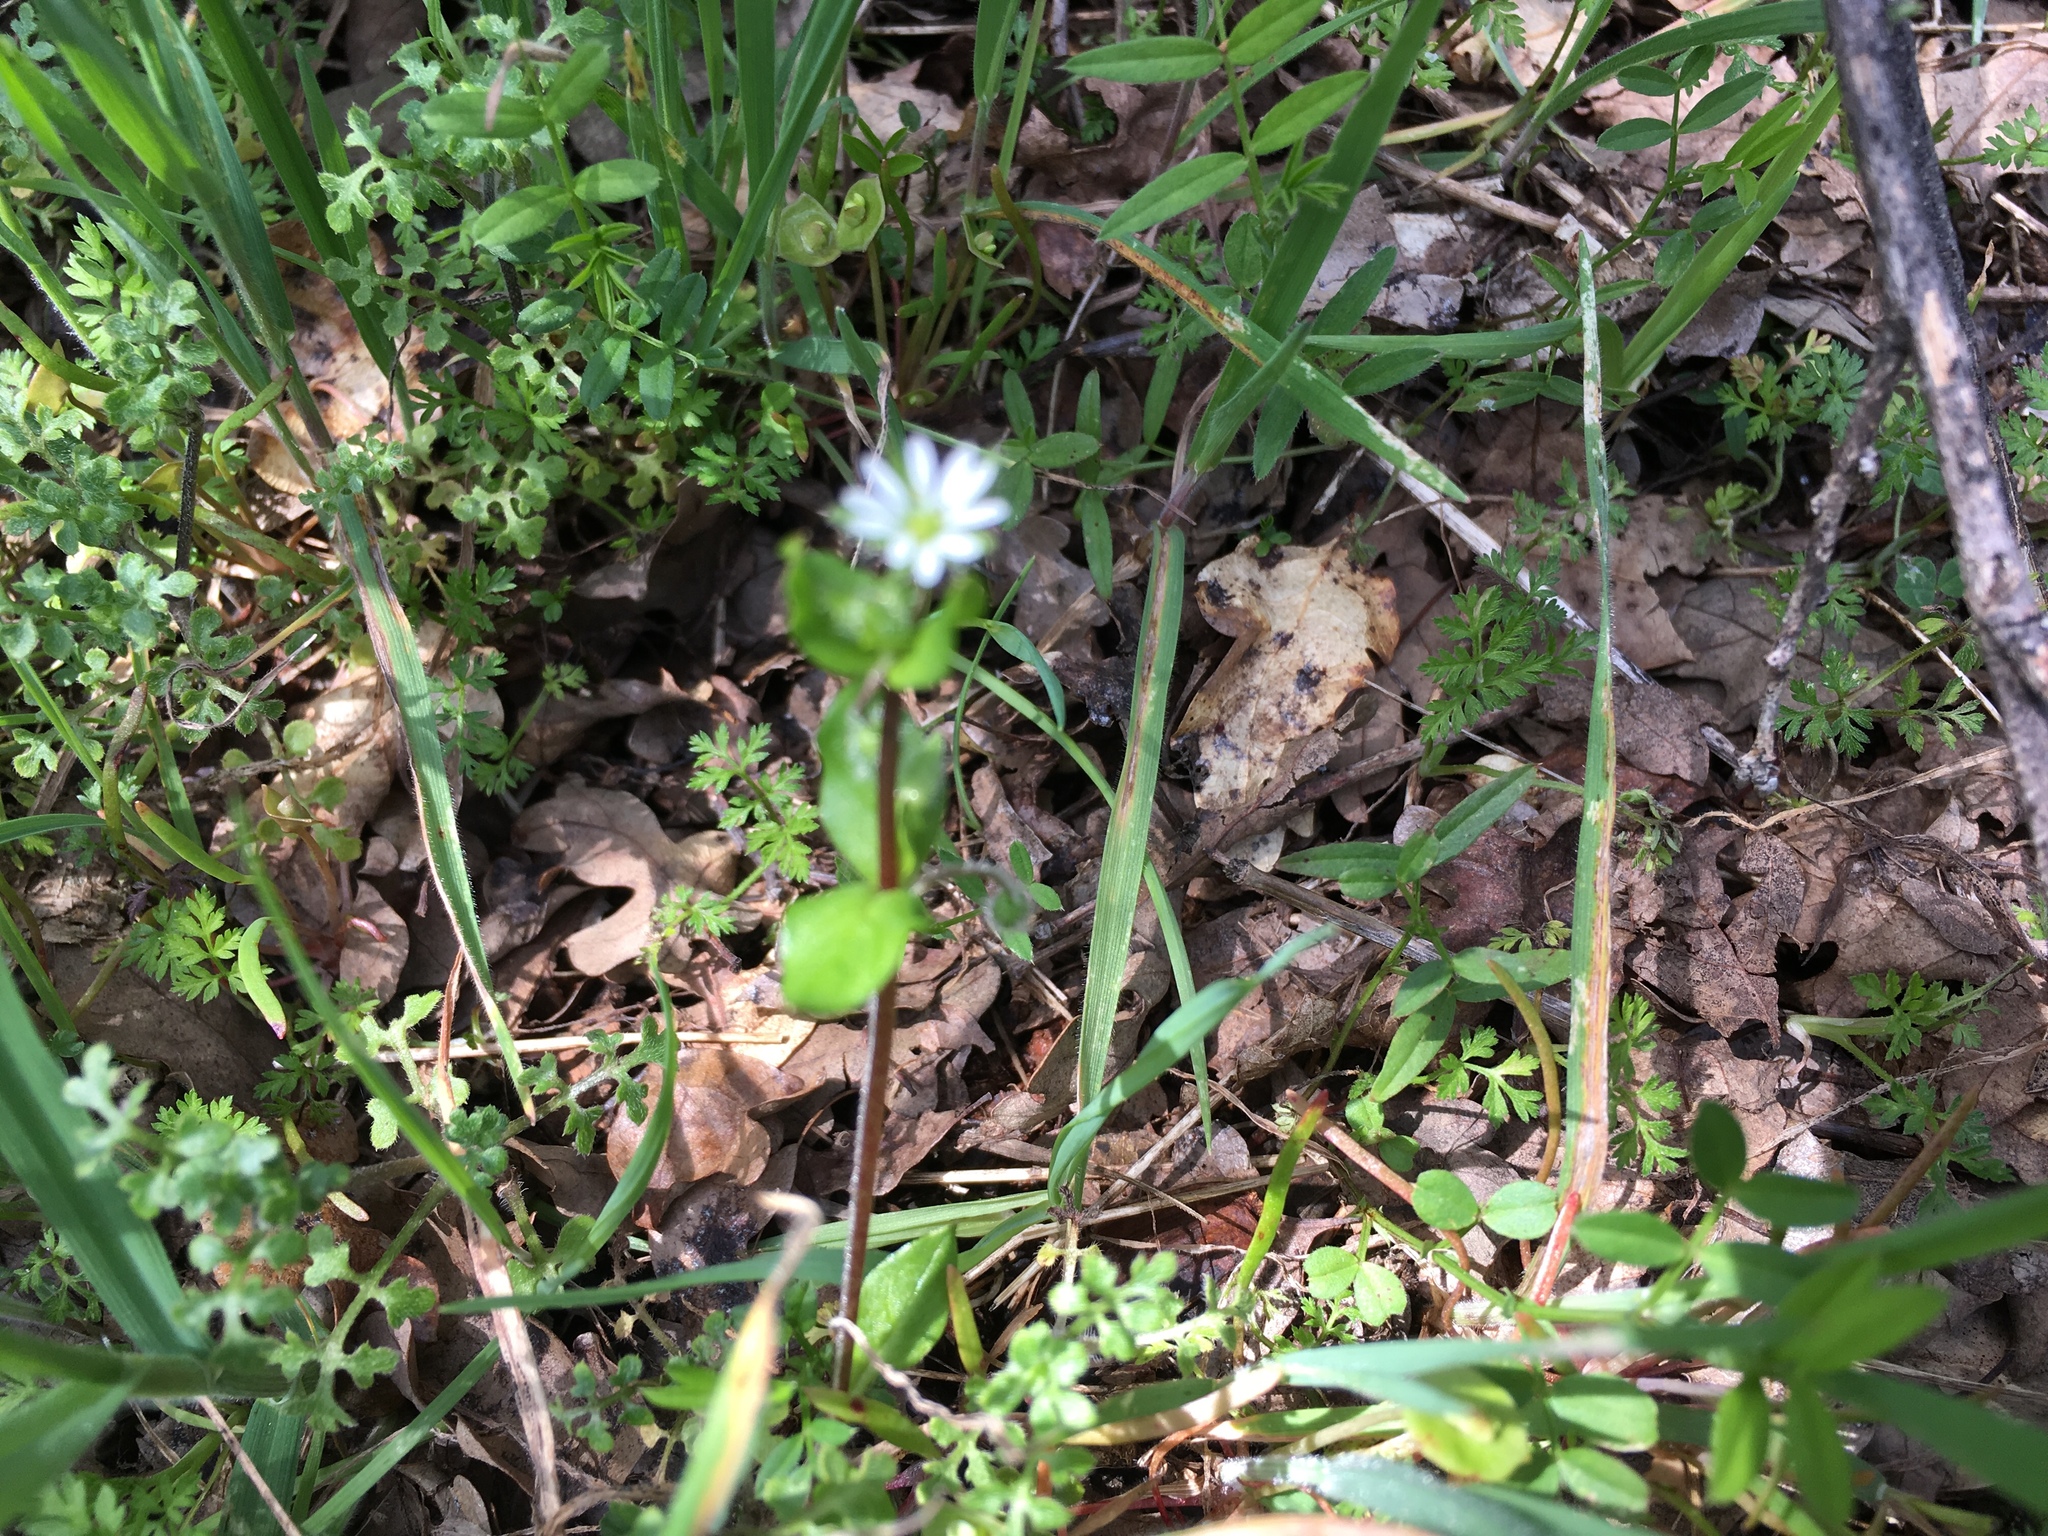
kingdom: Plantae
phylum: Tracheophyta
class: Magnoliopsida
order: Caryophyllales
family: Caryophyllaceae
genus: Stellaria
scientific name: Stellaria media
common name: Common chickweed
